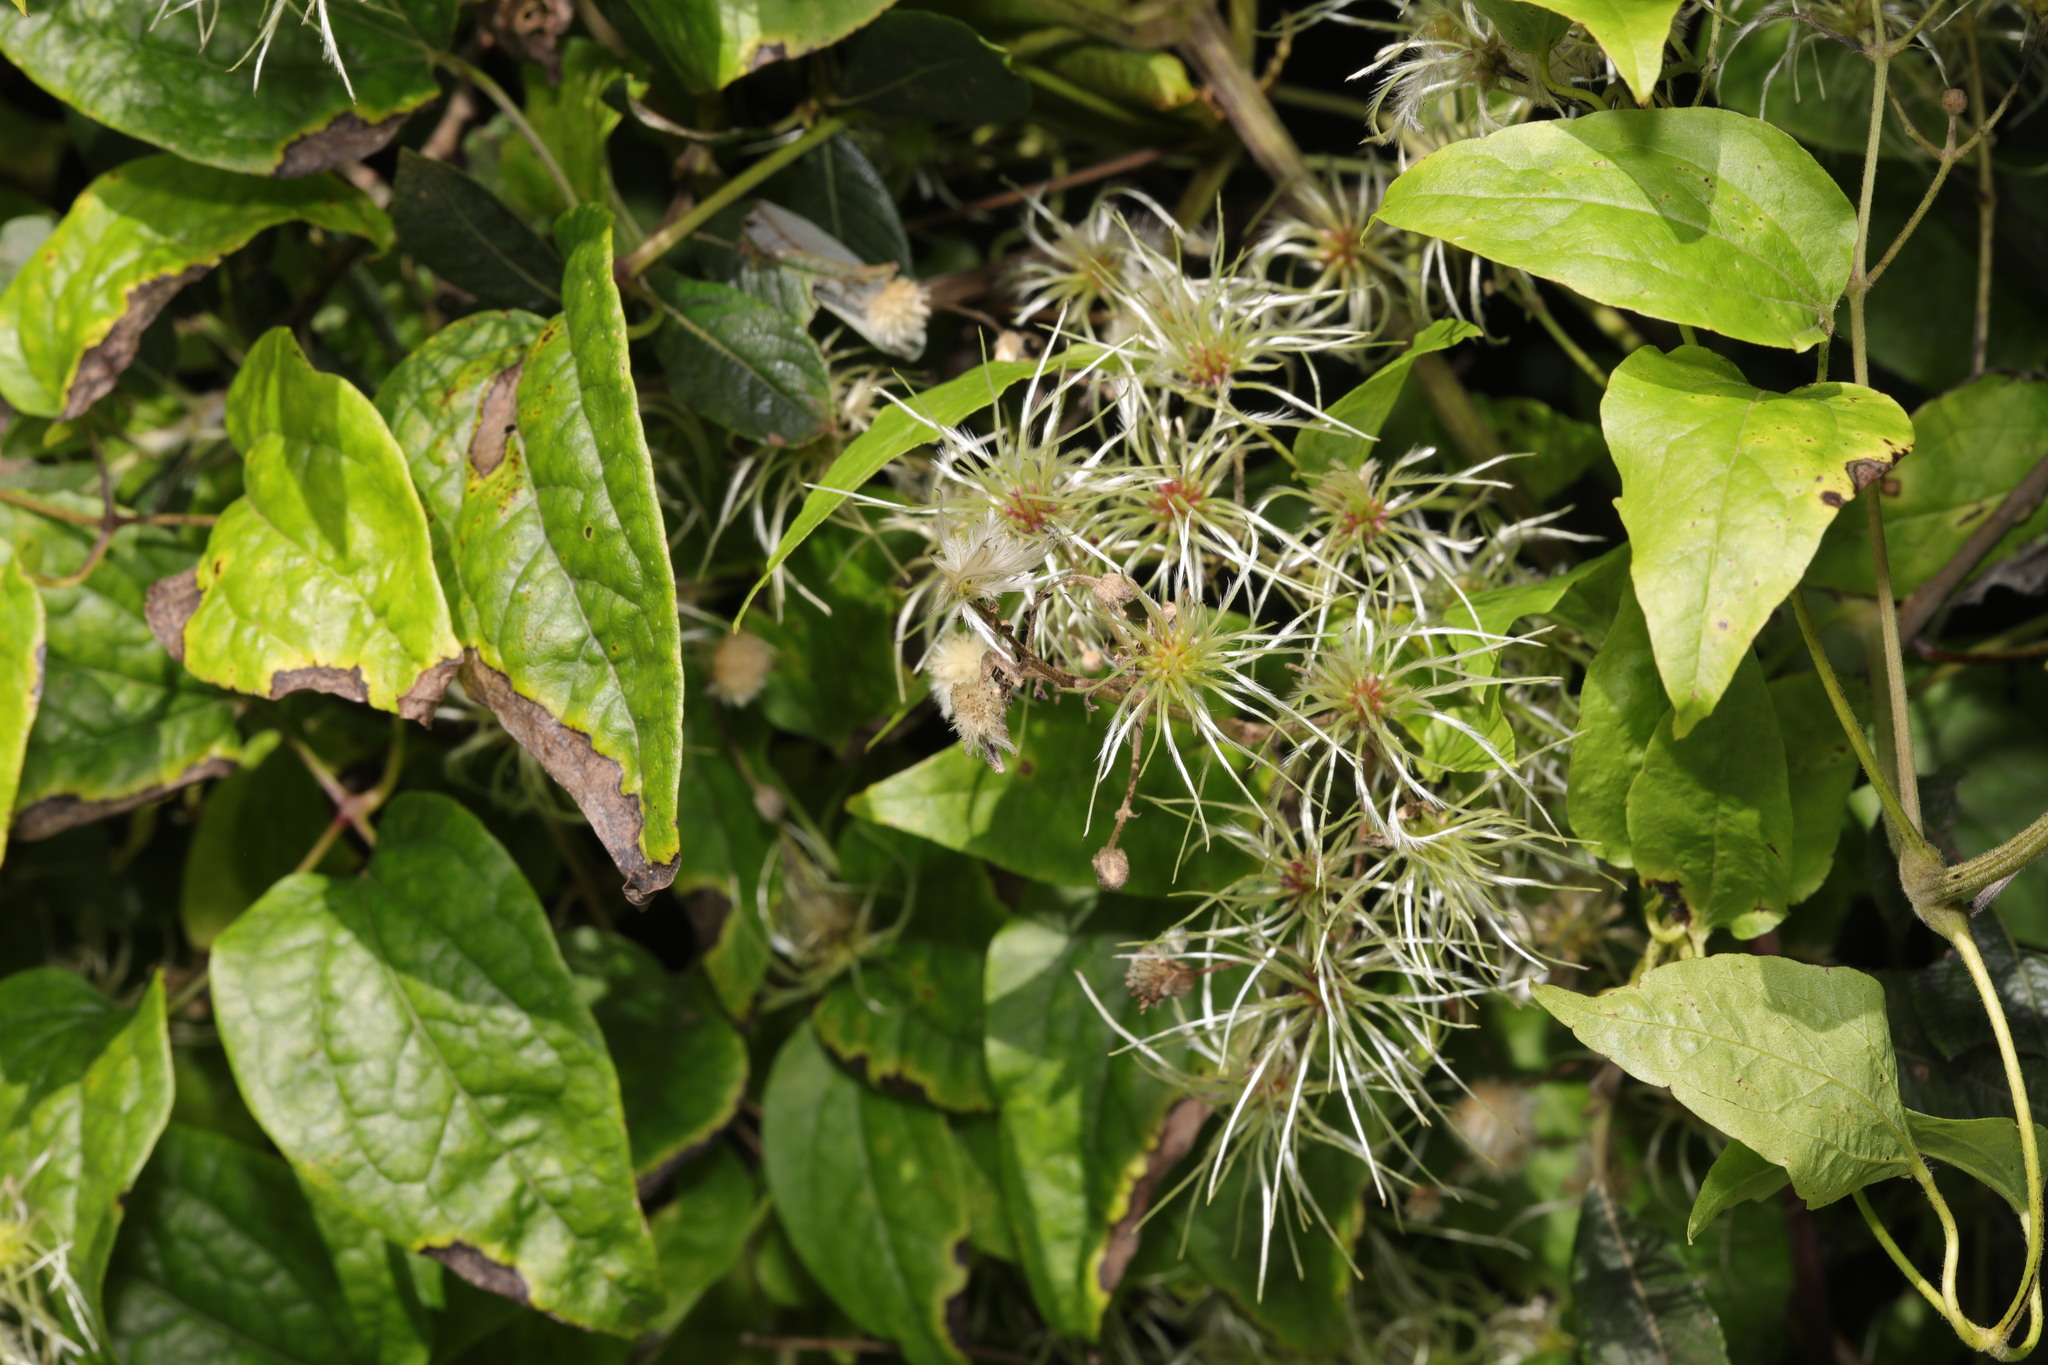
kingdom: Plantae
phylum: Tracheophyta
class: Magnoliopsida
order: Ranunculales
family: Ranunculaceae
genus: Clematis
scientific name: Clematis vitalba
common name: Evergreen clematis
